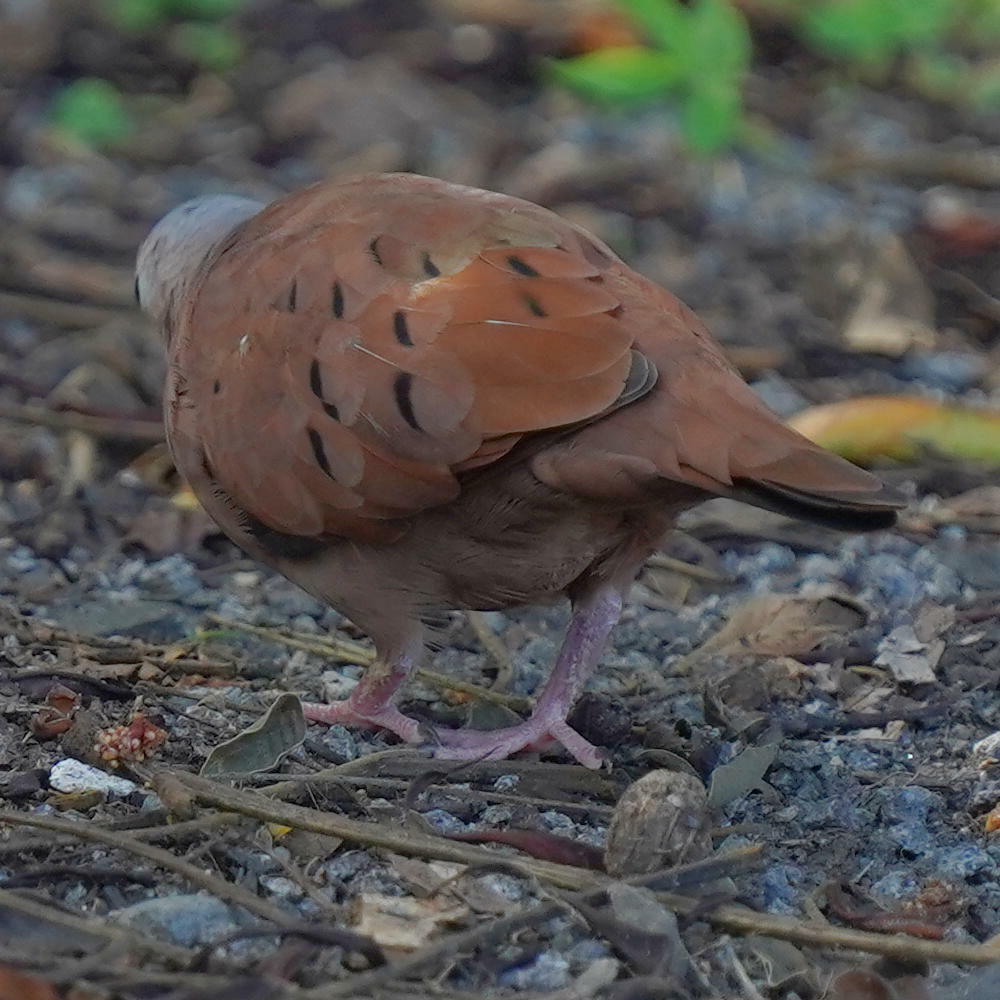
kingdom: Animalia
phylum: Chordata
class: Aves
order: Columbiformes
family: Columbidae
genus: Columbina
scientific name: Columbina talpacoti
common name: Ruddy ground dove
